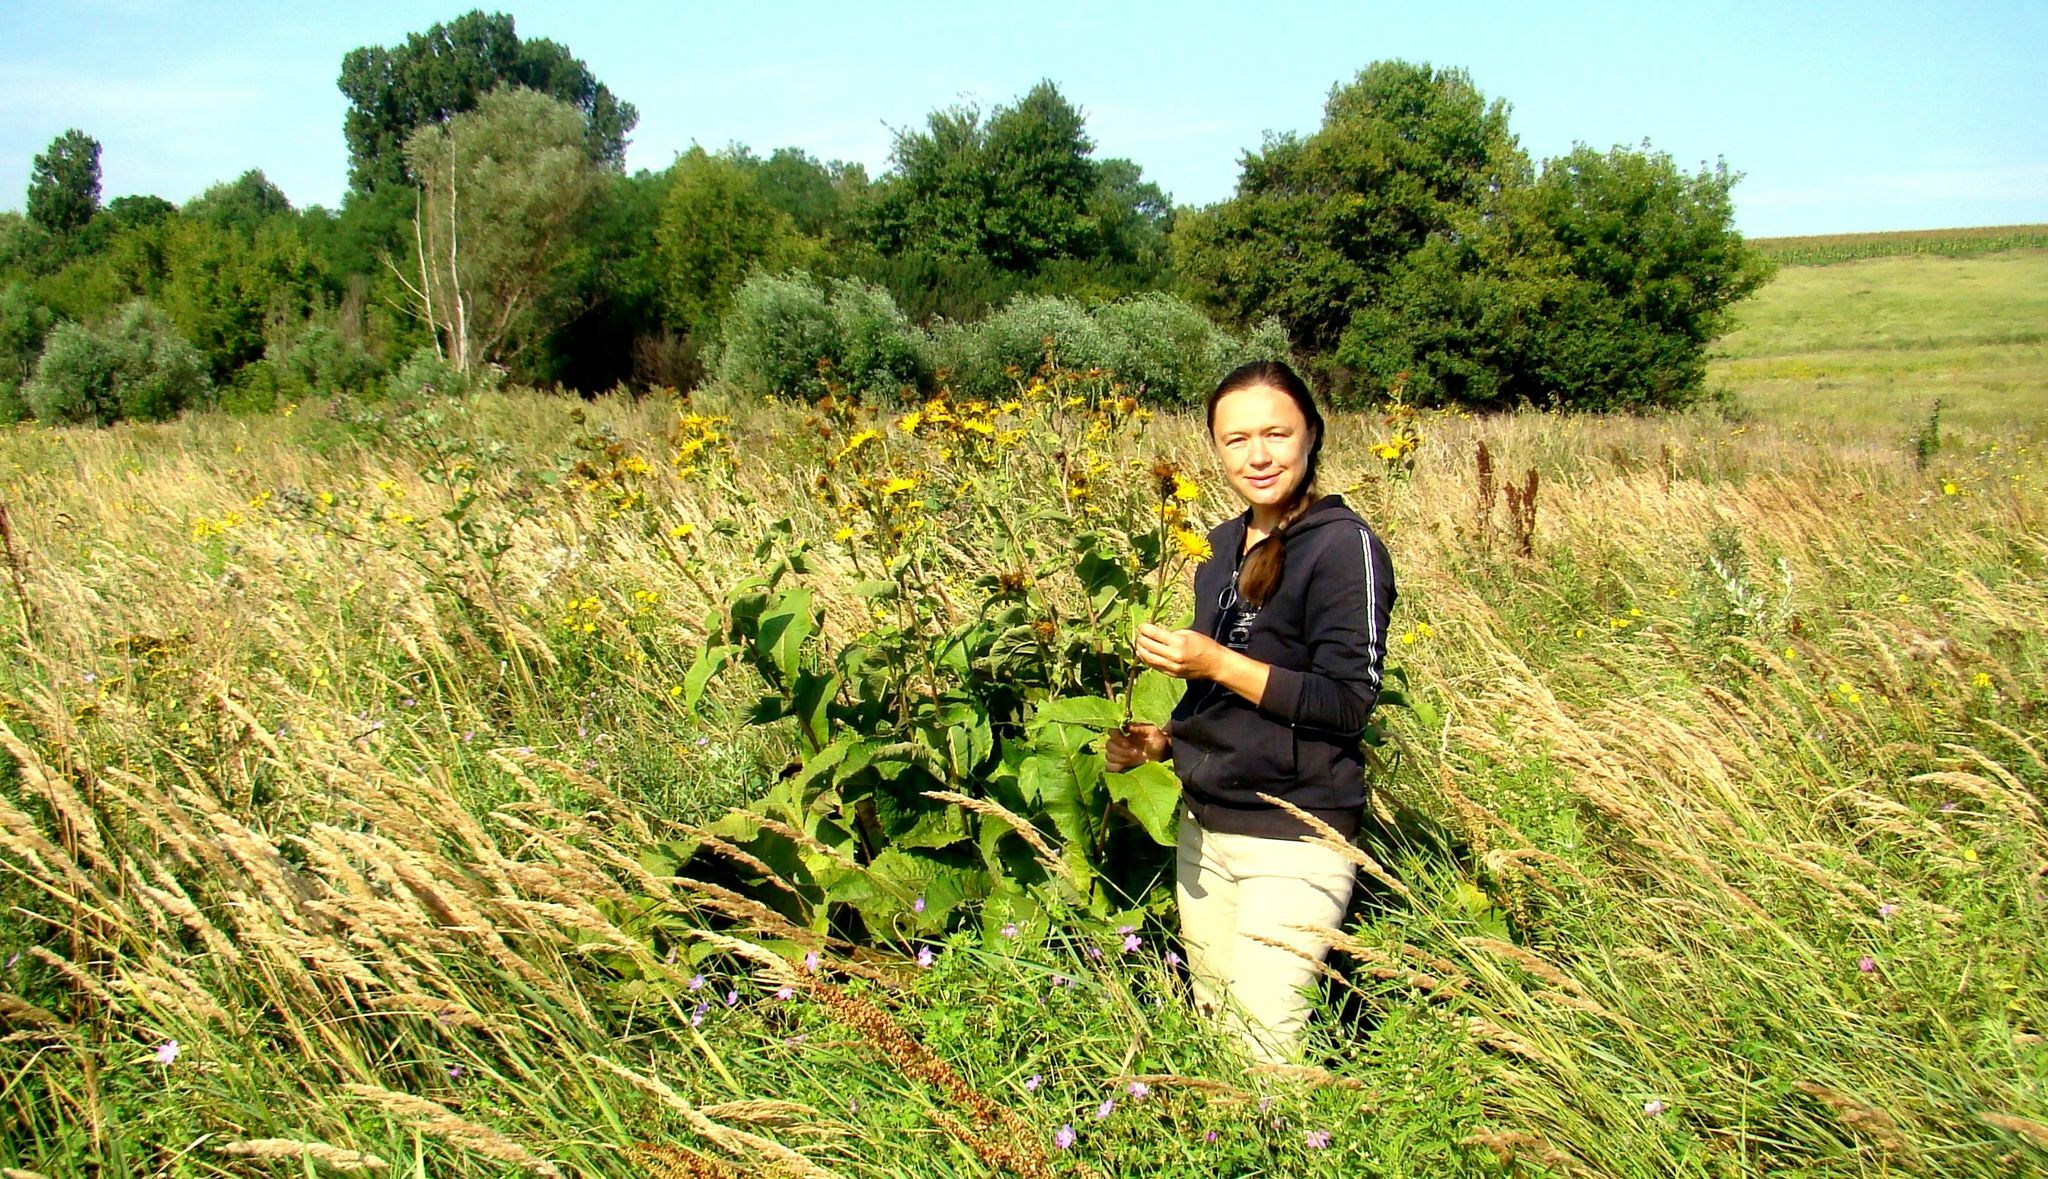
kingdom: Plantae
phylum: Tracheophyta
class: Magnoliopsida
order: Asterales
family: Asteraceae
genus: Inula
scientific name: Inula helenium
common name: Elecampane
